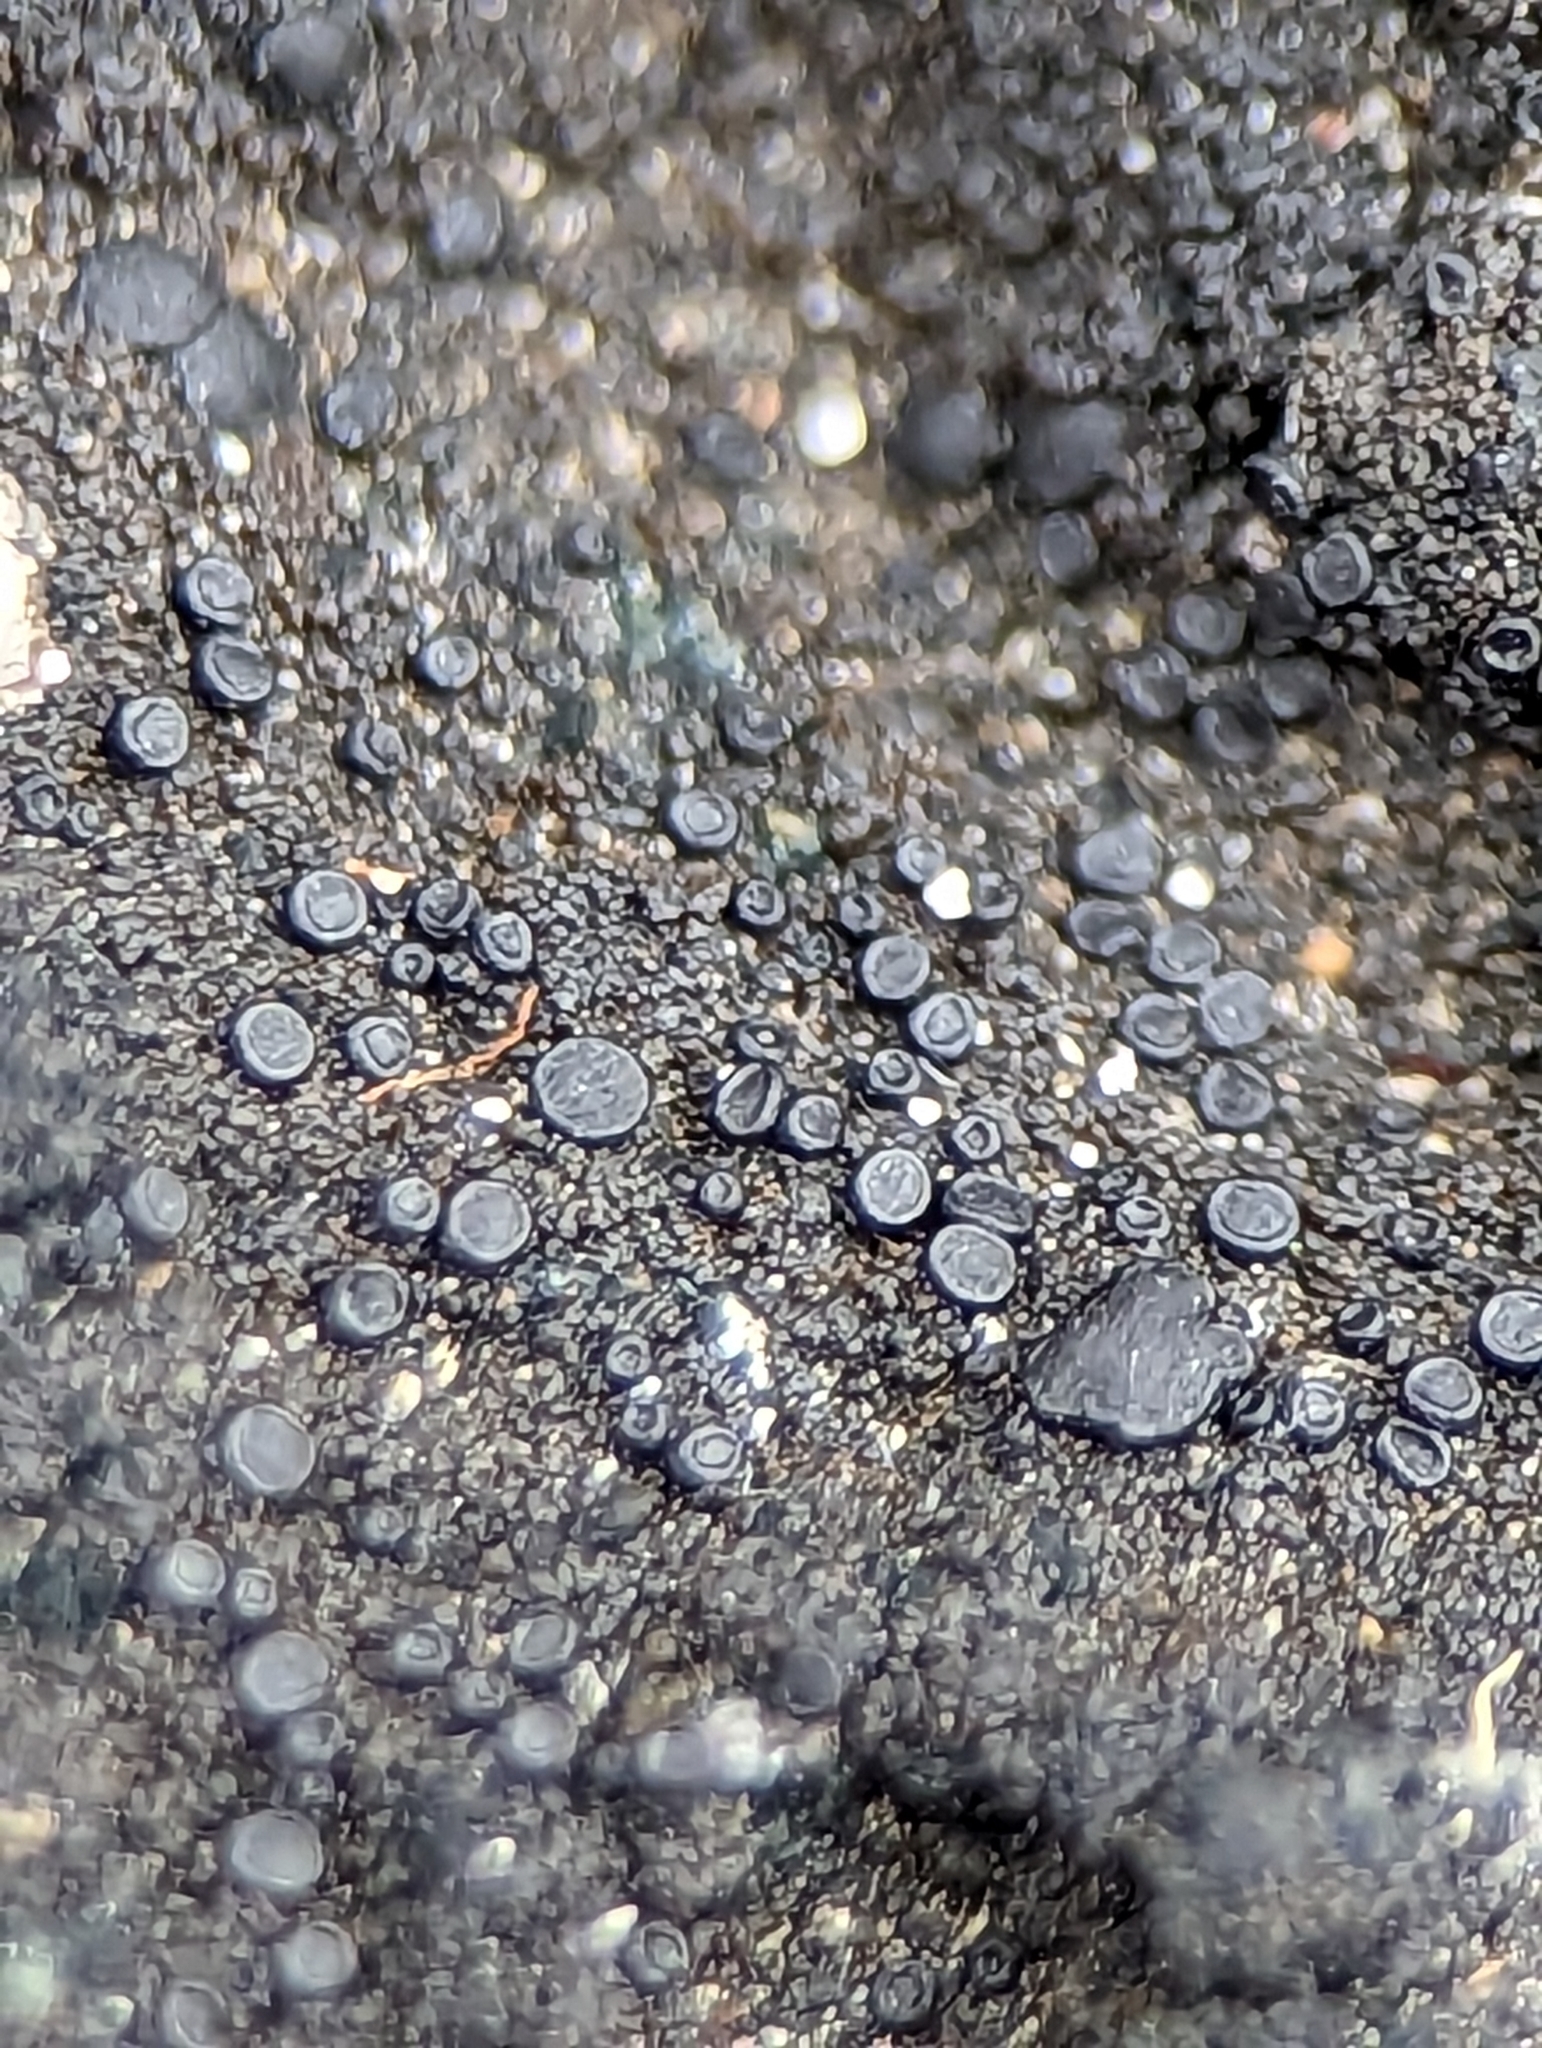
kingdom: Fungi
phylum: Ascomycota
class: Lecanoromycetes
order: Peltigerales
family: Placynthiaceae
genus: Placynthium
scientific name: Placynthium nigrum
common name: Blackthread lichen
